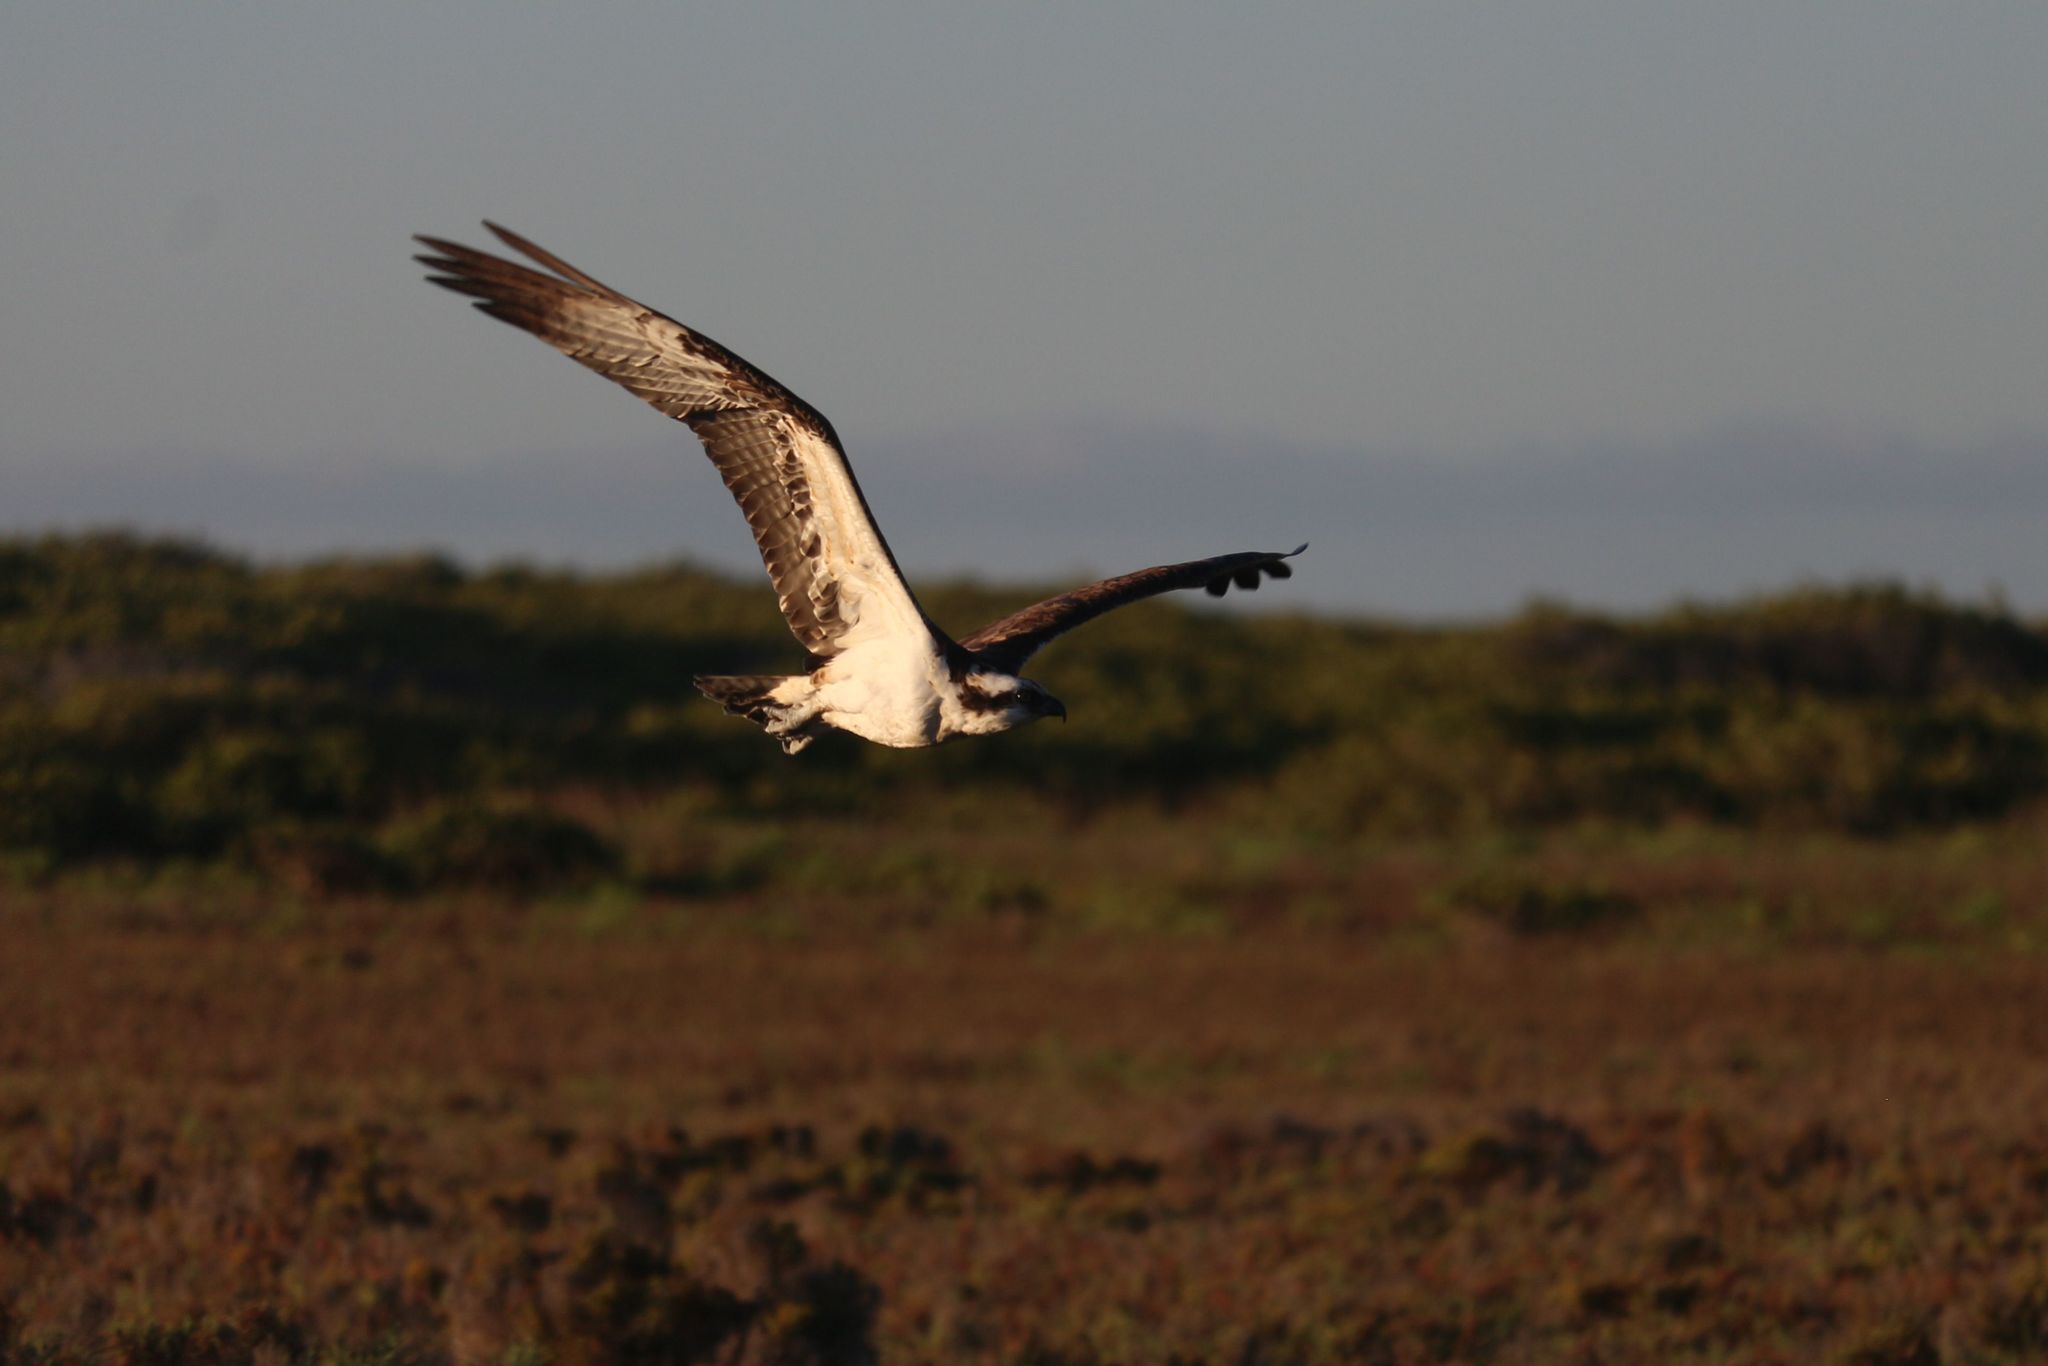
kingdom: Animalia
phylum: Chordata
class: Aves
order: Accipitriformes
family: Pandionidae
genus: Pandion
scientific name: Pandion haliaetus
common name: Osprey
